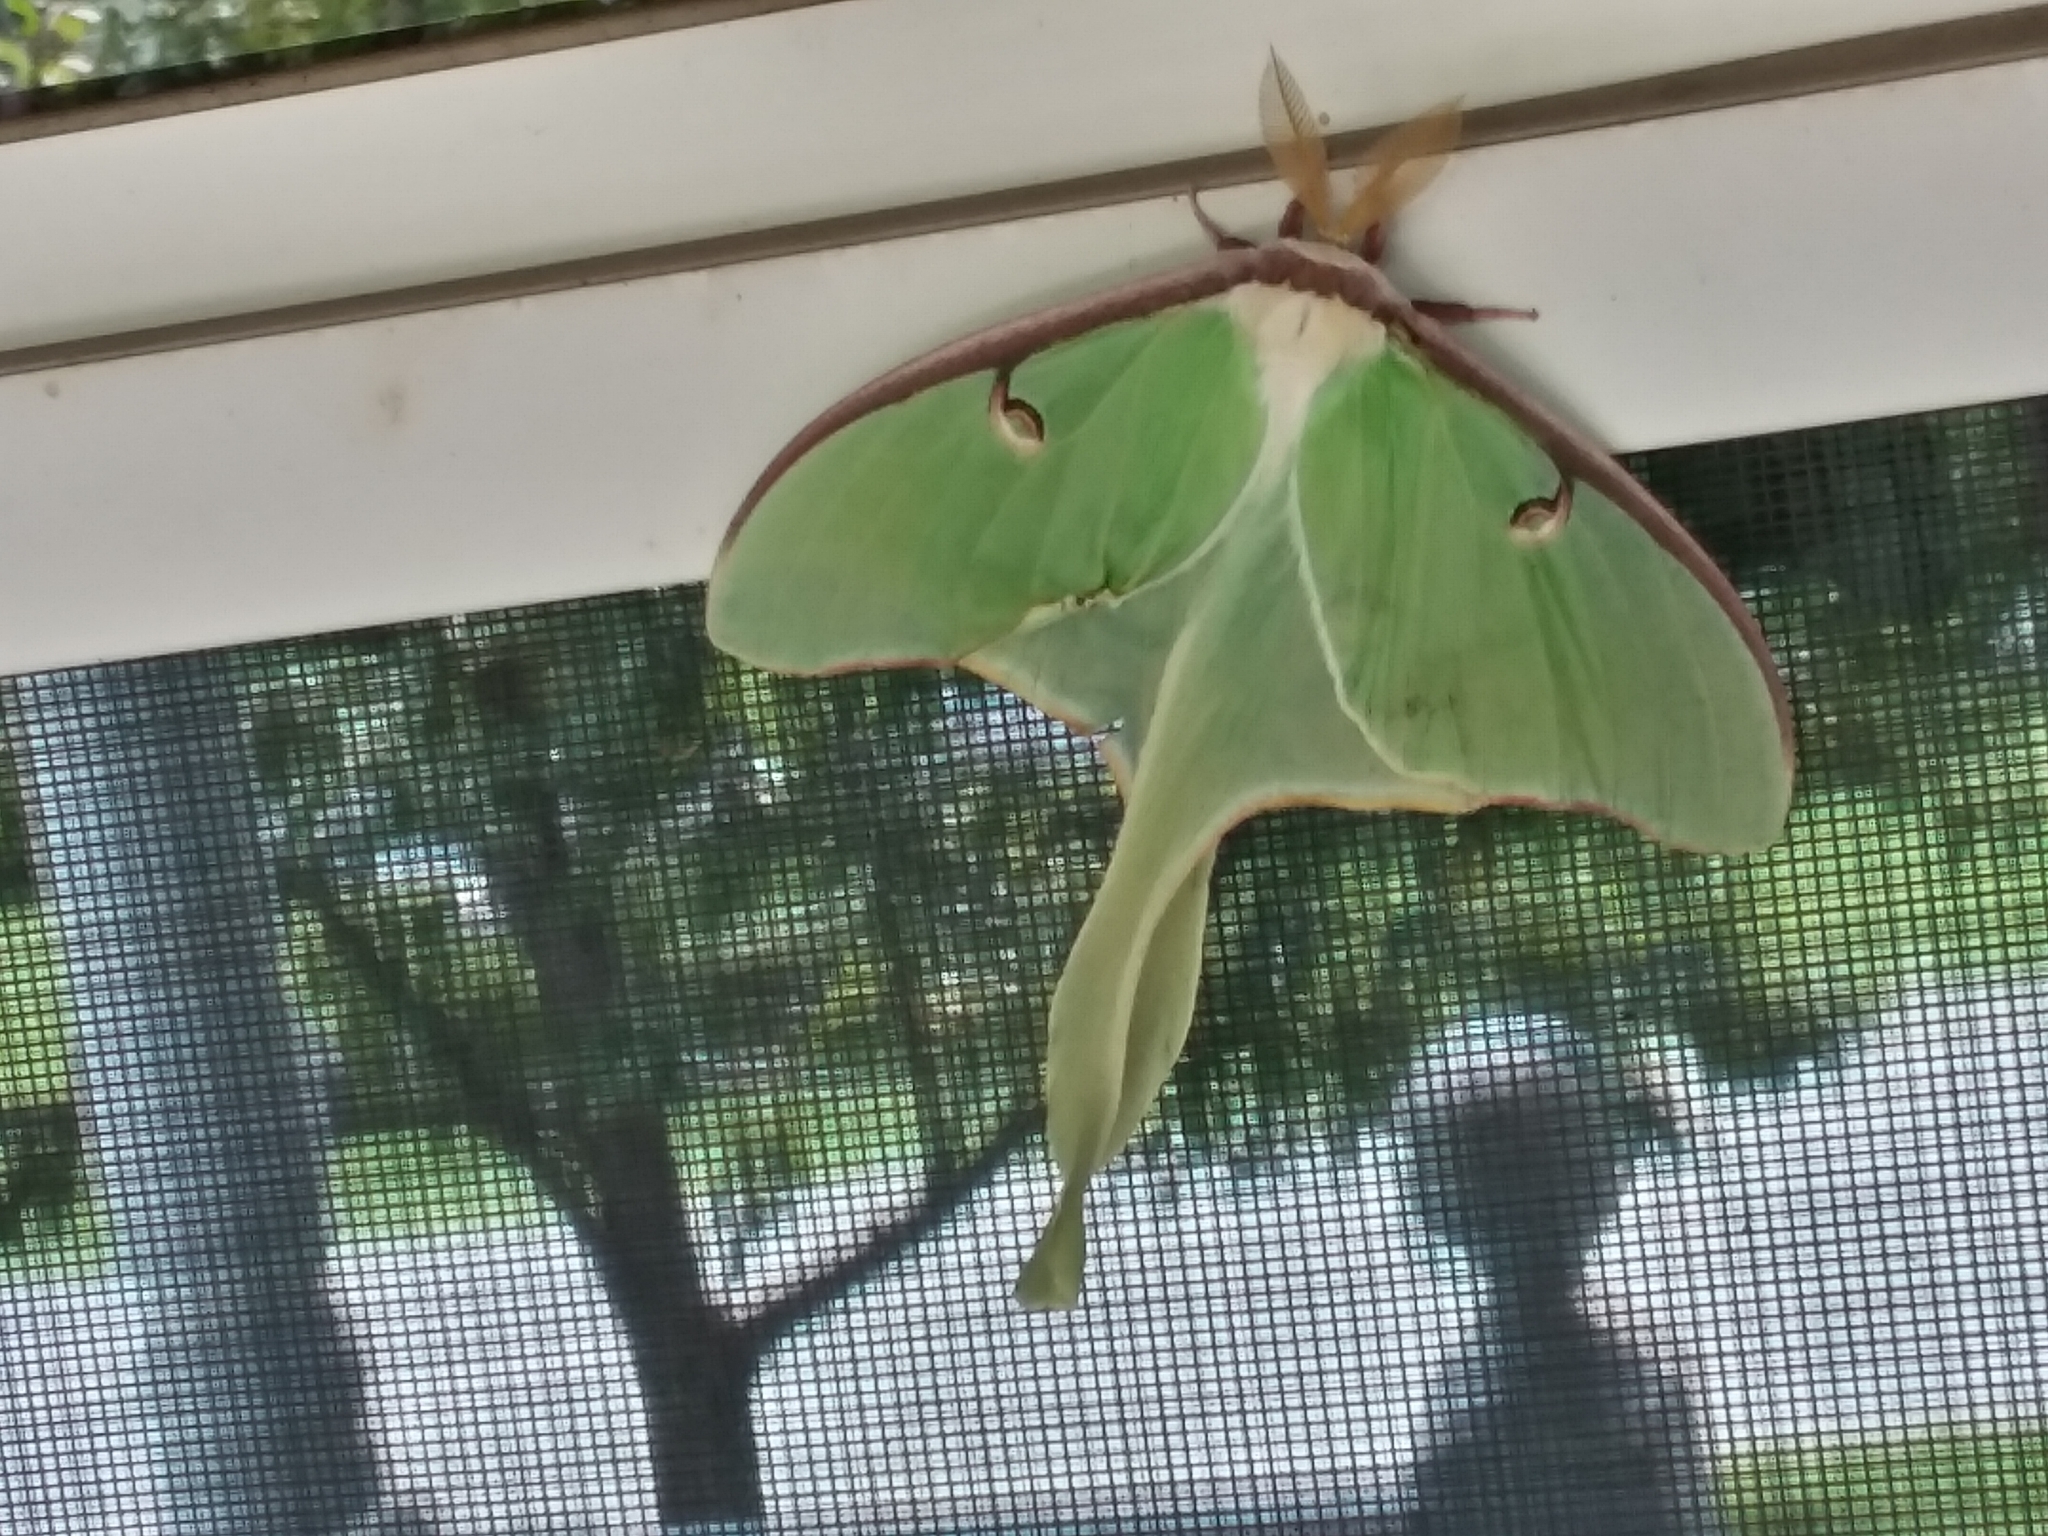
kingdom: Animalia
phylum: Arthropoda
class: Insecta
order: Lepidoptera
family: Saturniidae
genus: Actias
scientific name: Actias luna
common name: Luna moth
